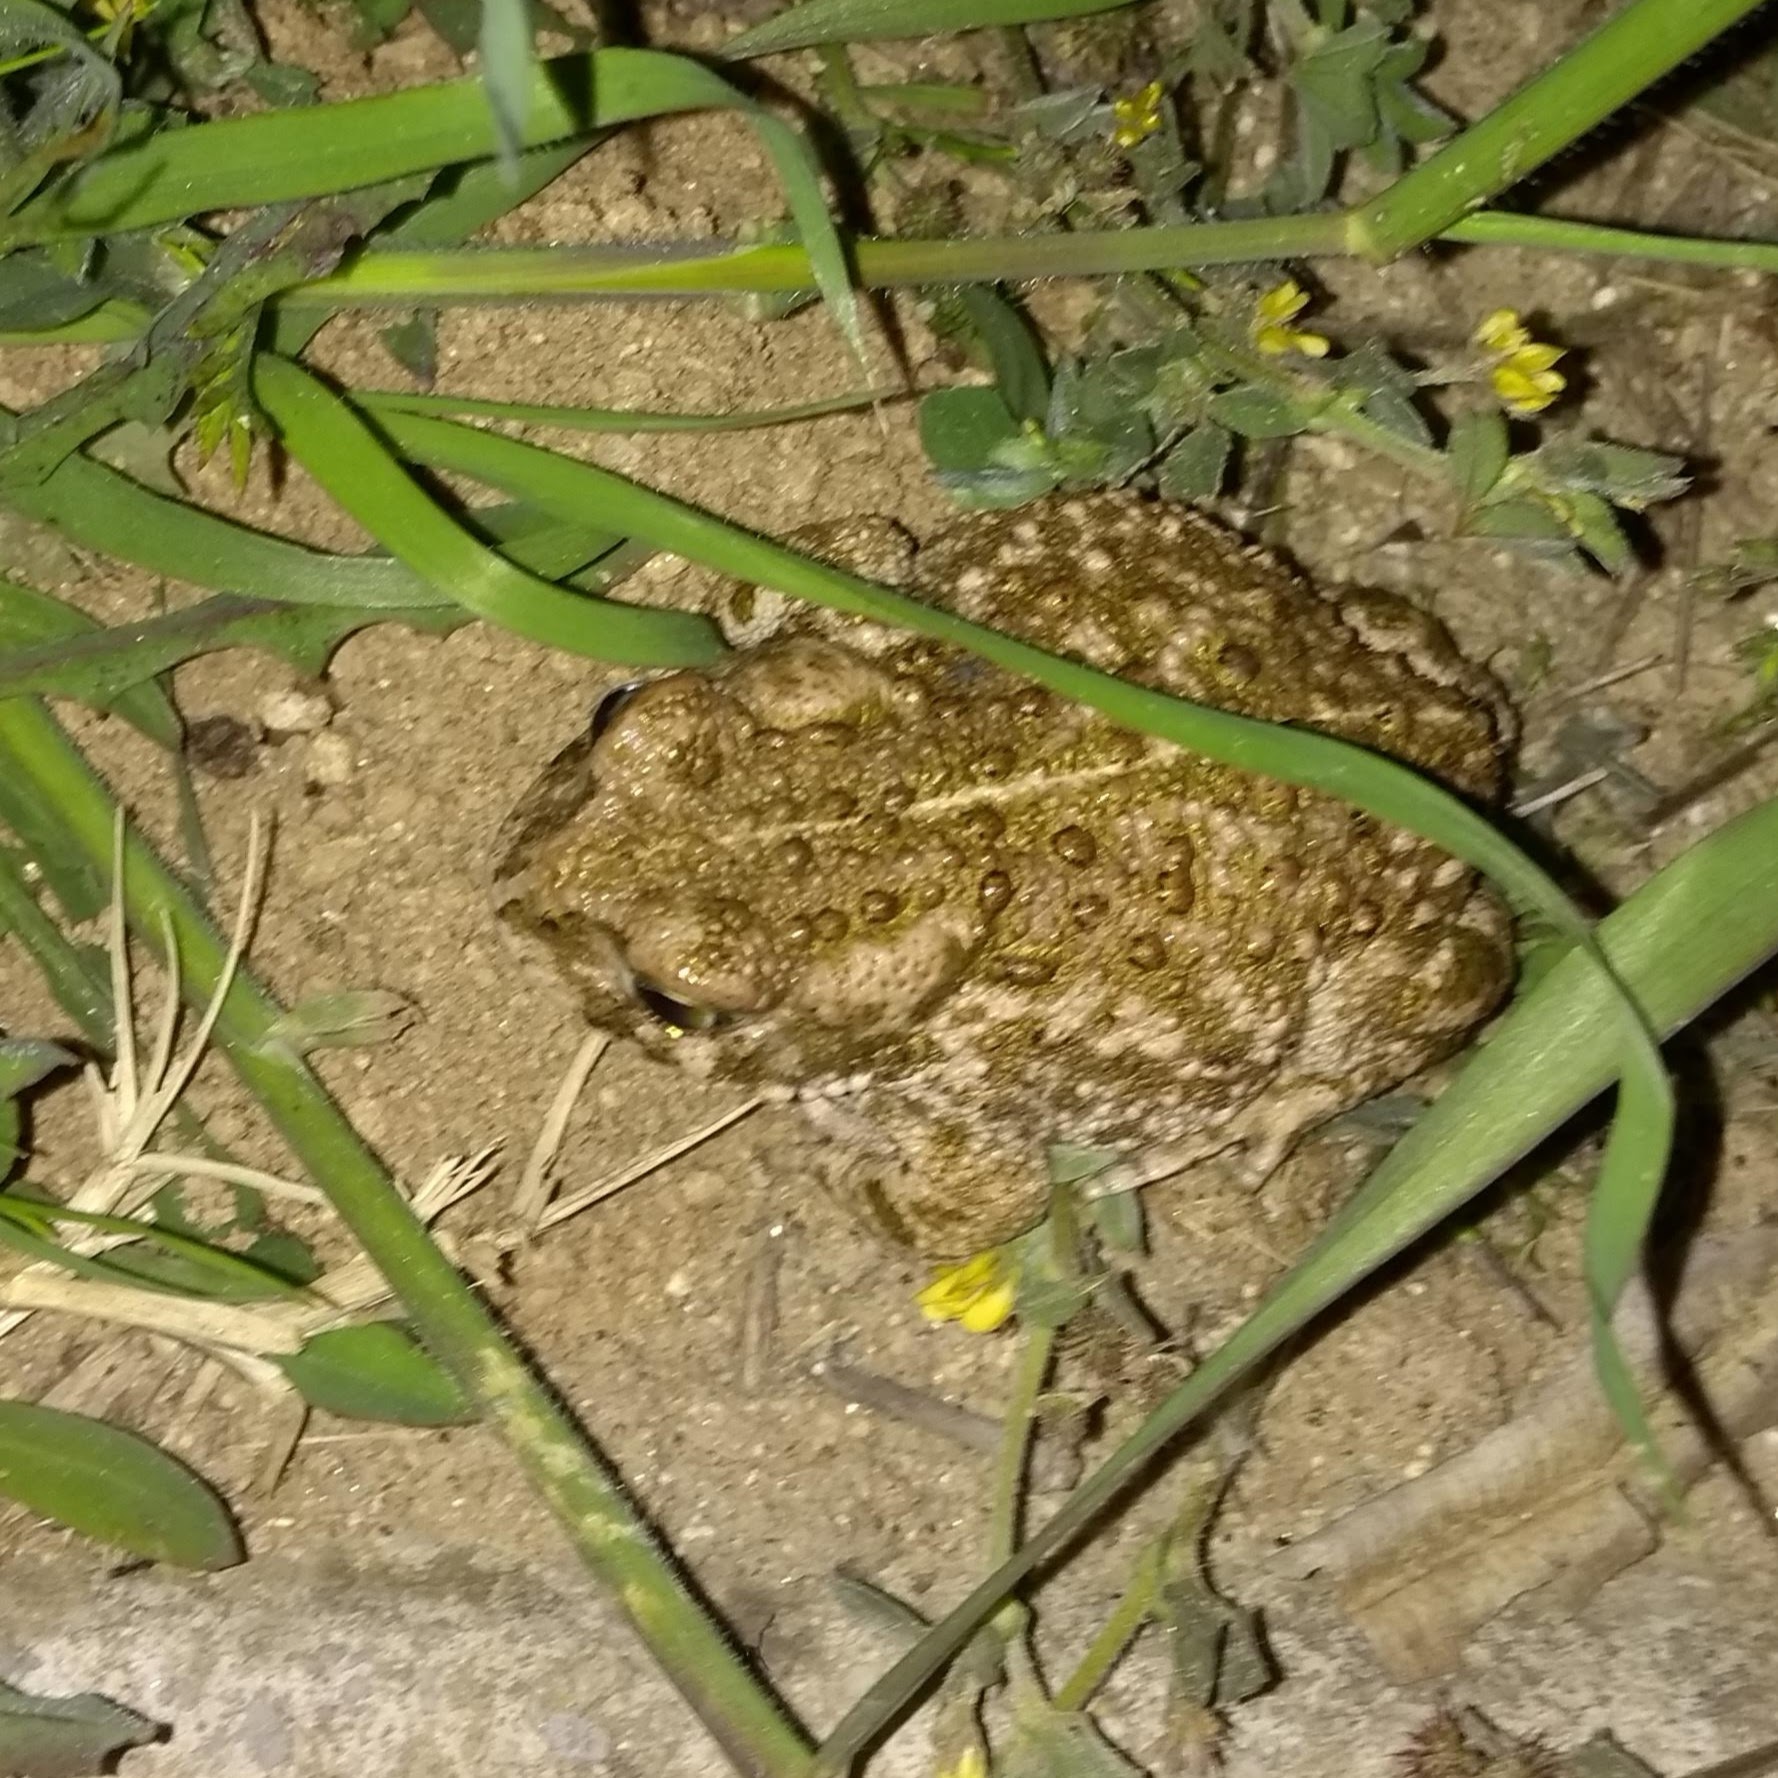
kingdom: Animalia
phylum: Chordata
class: Amphibia
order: Anura
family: Bufonidae
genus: Epidalea
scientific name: Epidalea calamita
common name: Natterjack toad
